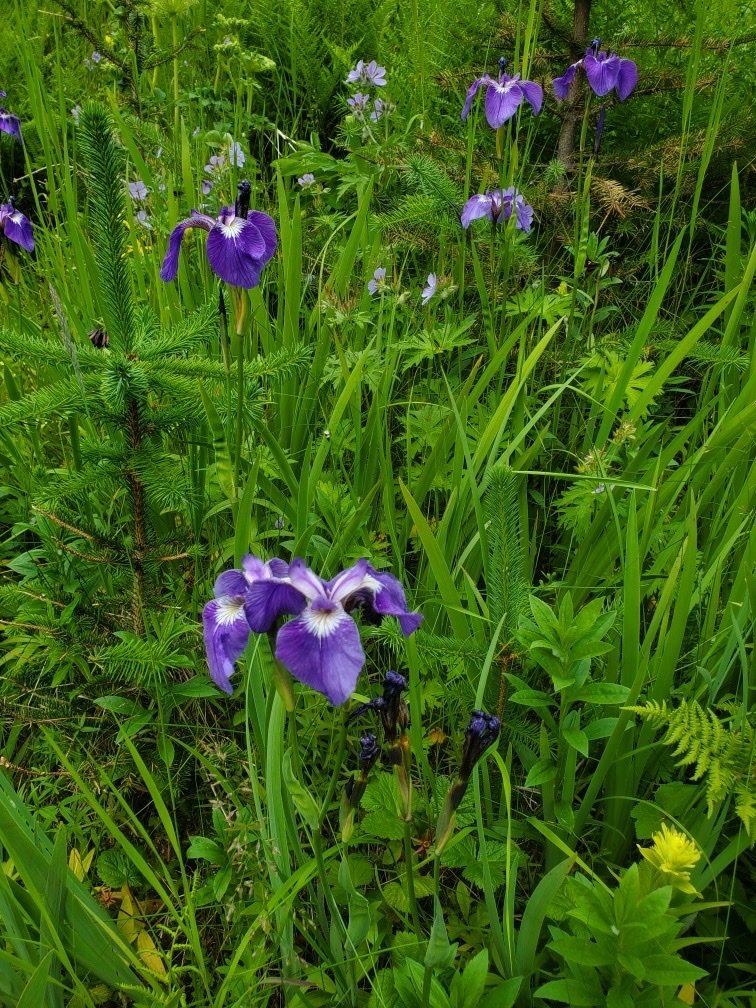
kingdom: Plantae
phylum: Tracheophyta
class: Liliopsida
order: Asparagales
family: Iridaceae
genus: Iris
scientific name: Iris setosa
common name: Arctic blue flag
